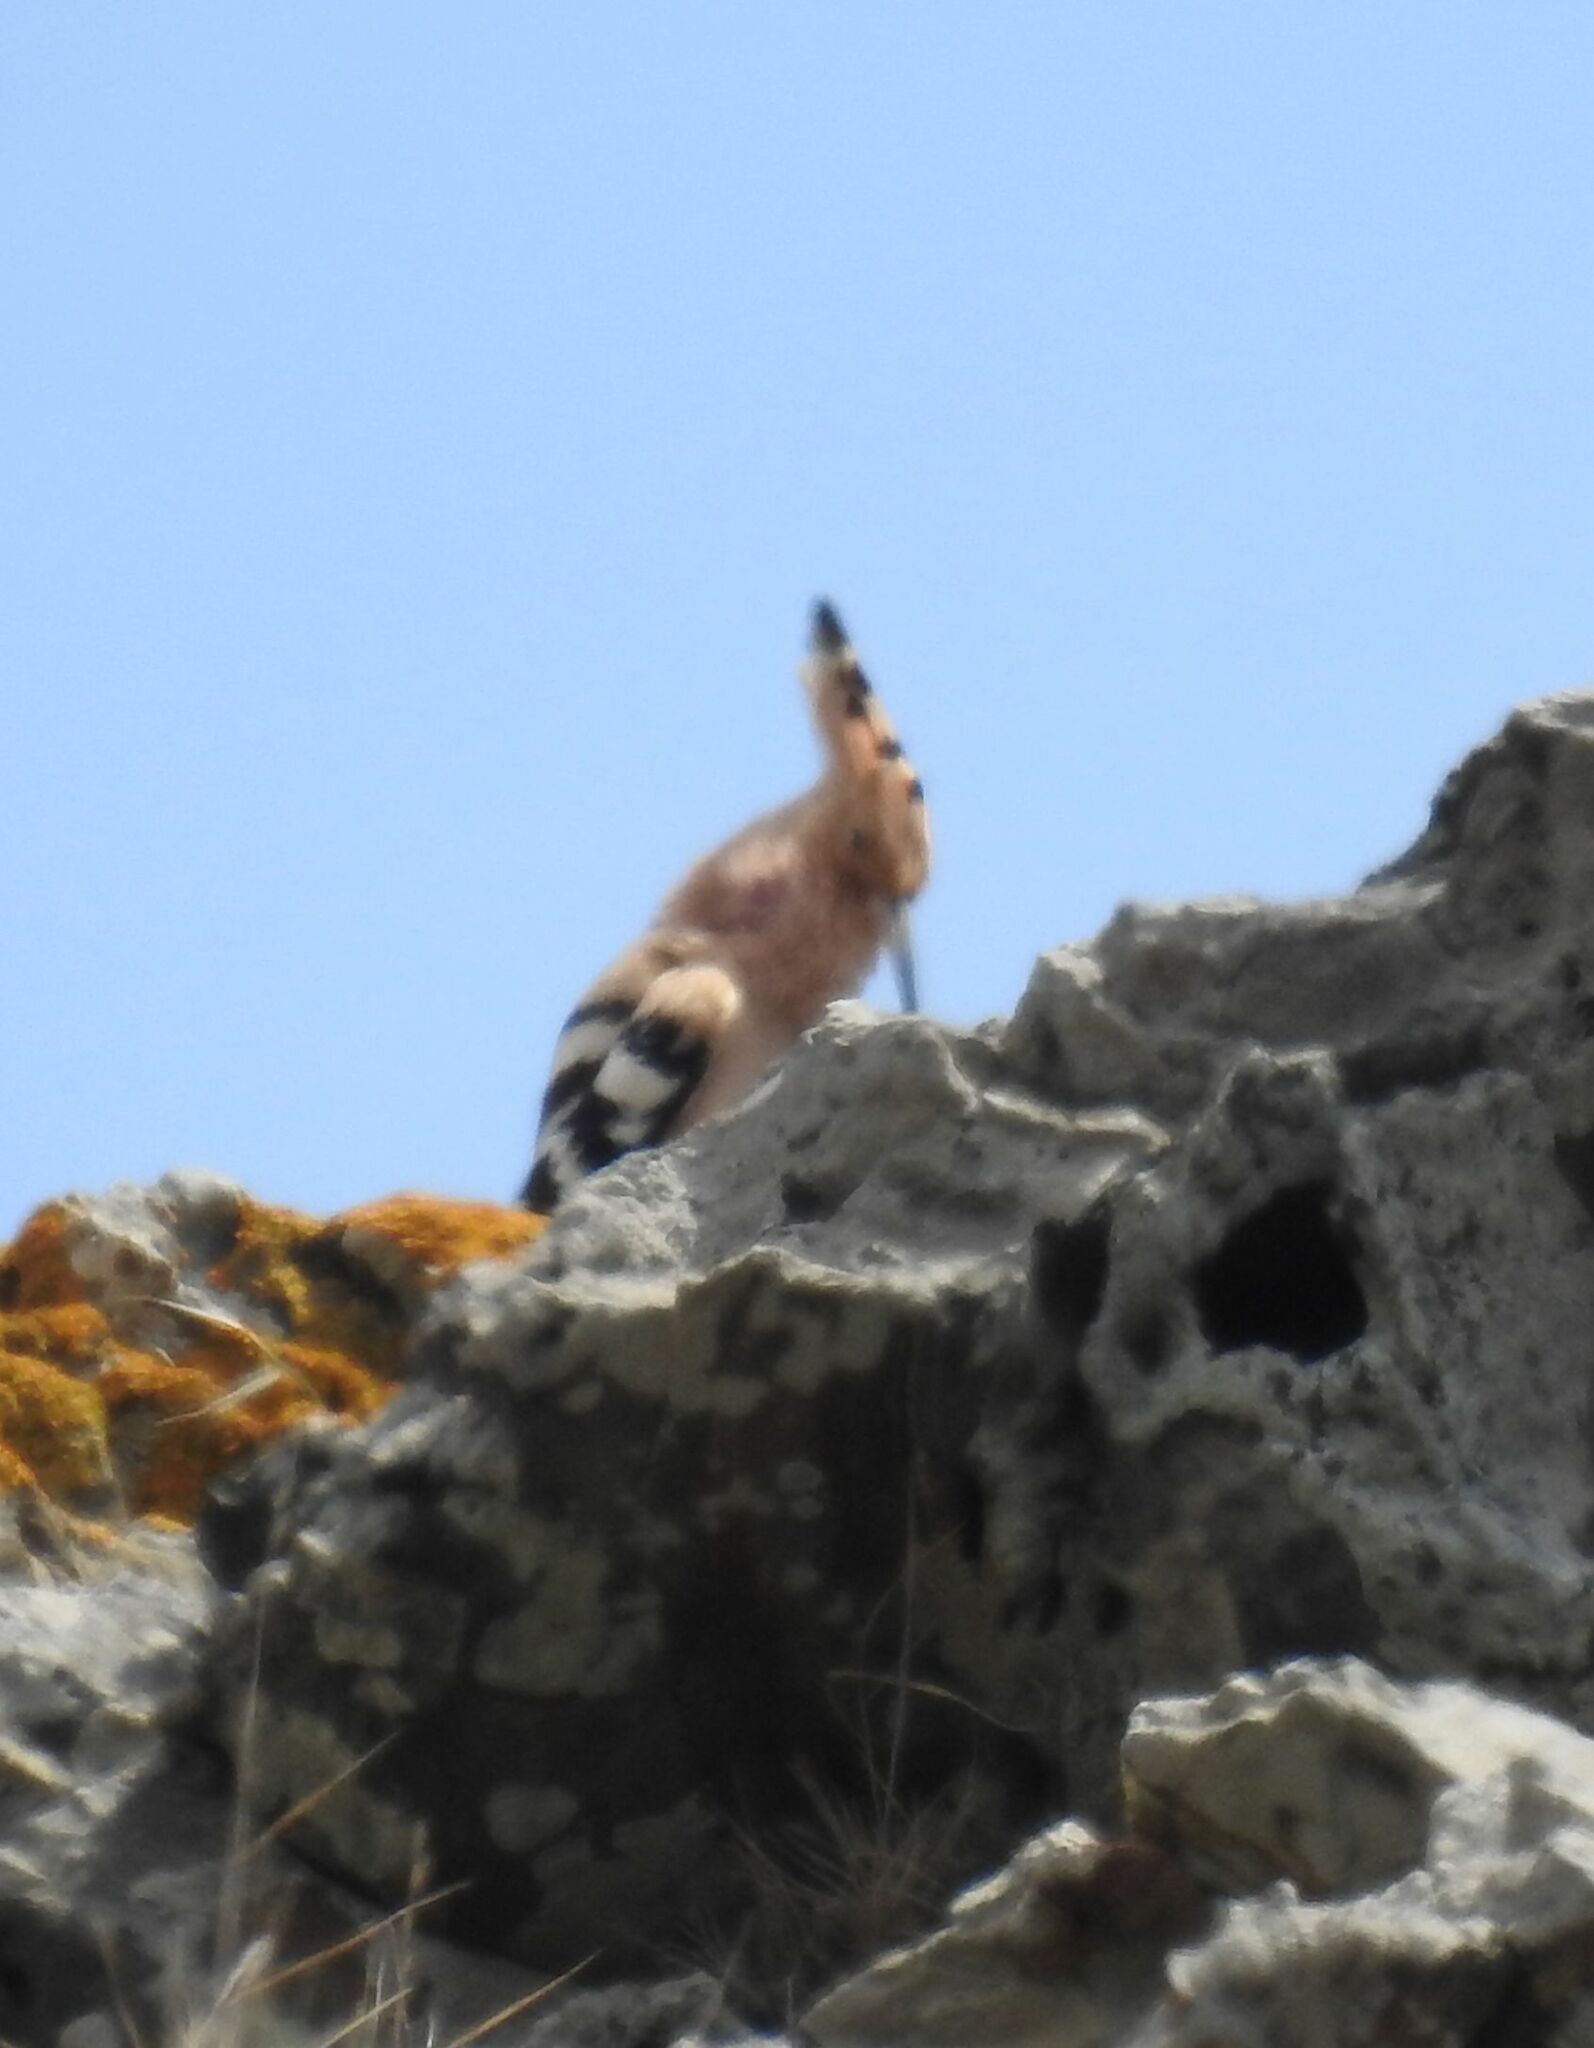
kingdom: Animalia
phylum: Chordata
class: Aves
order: Bucerotiformes
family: Upupidae
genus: Upupa
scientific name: Upupa epops
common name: Eurasian hoopoe
